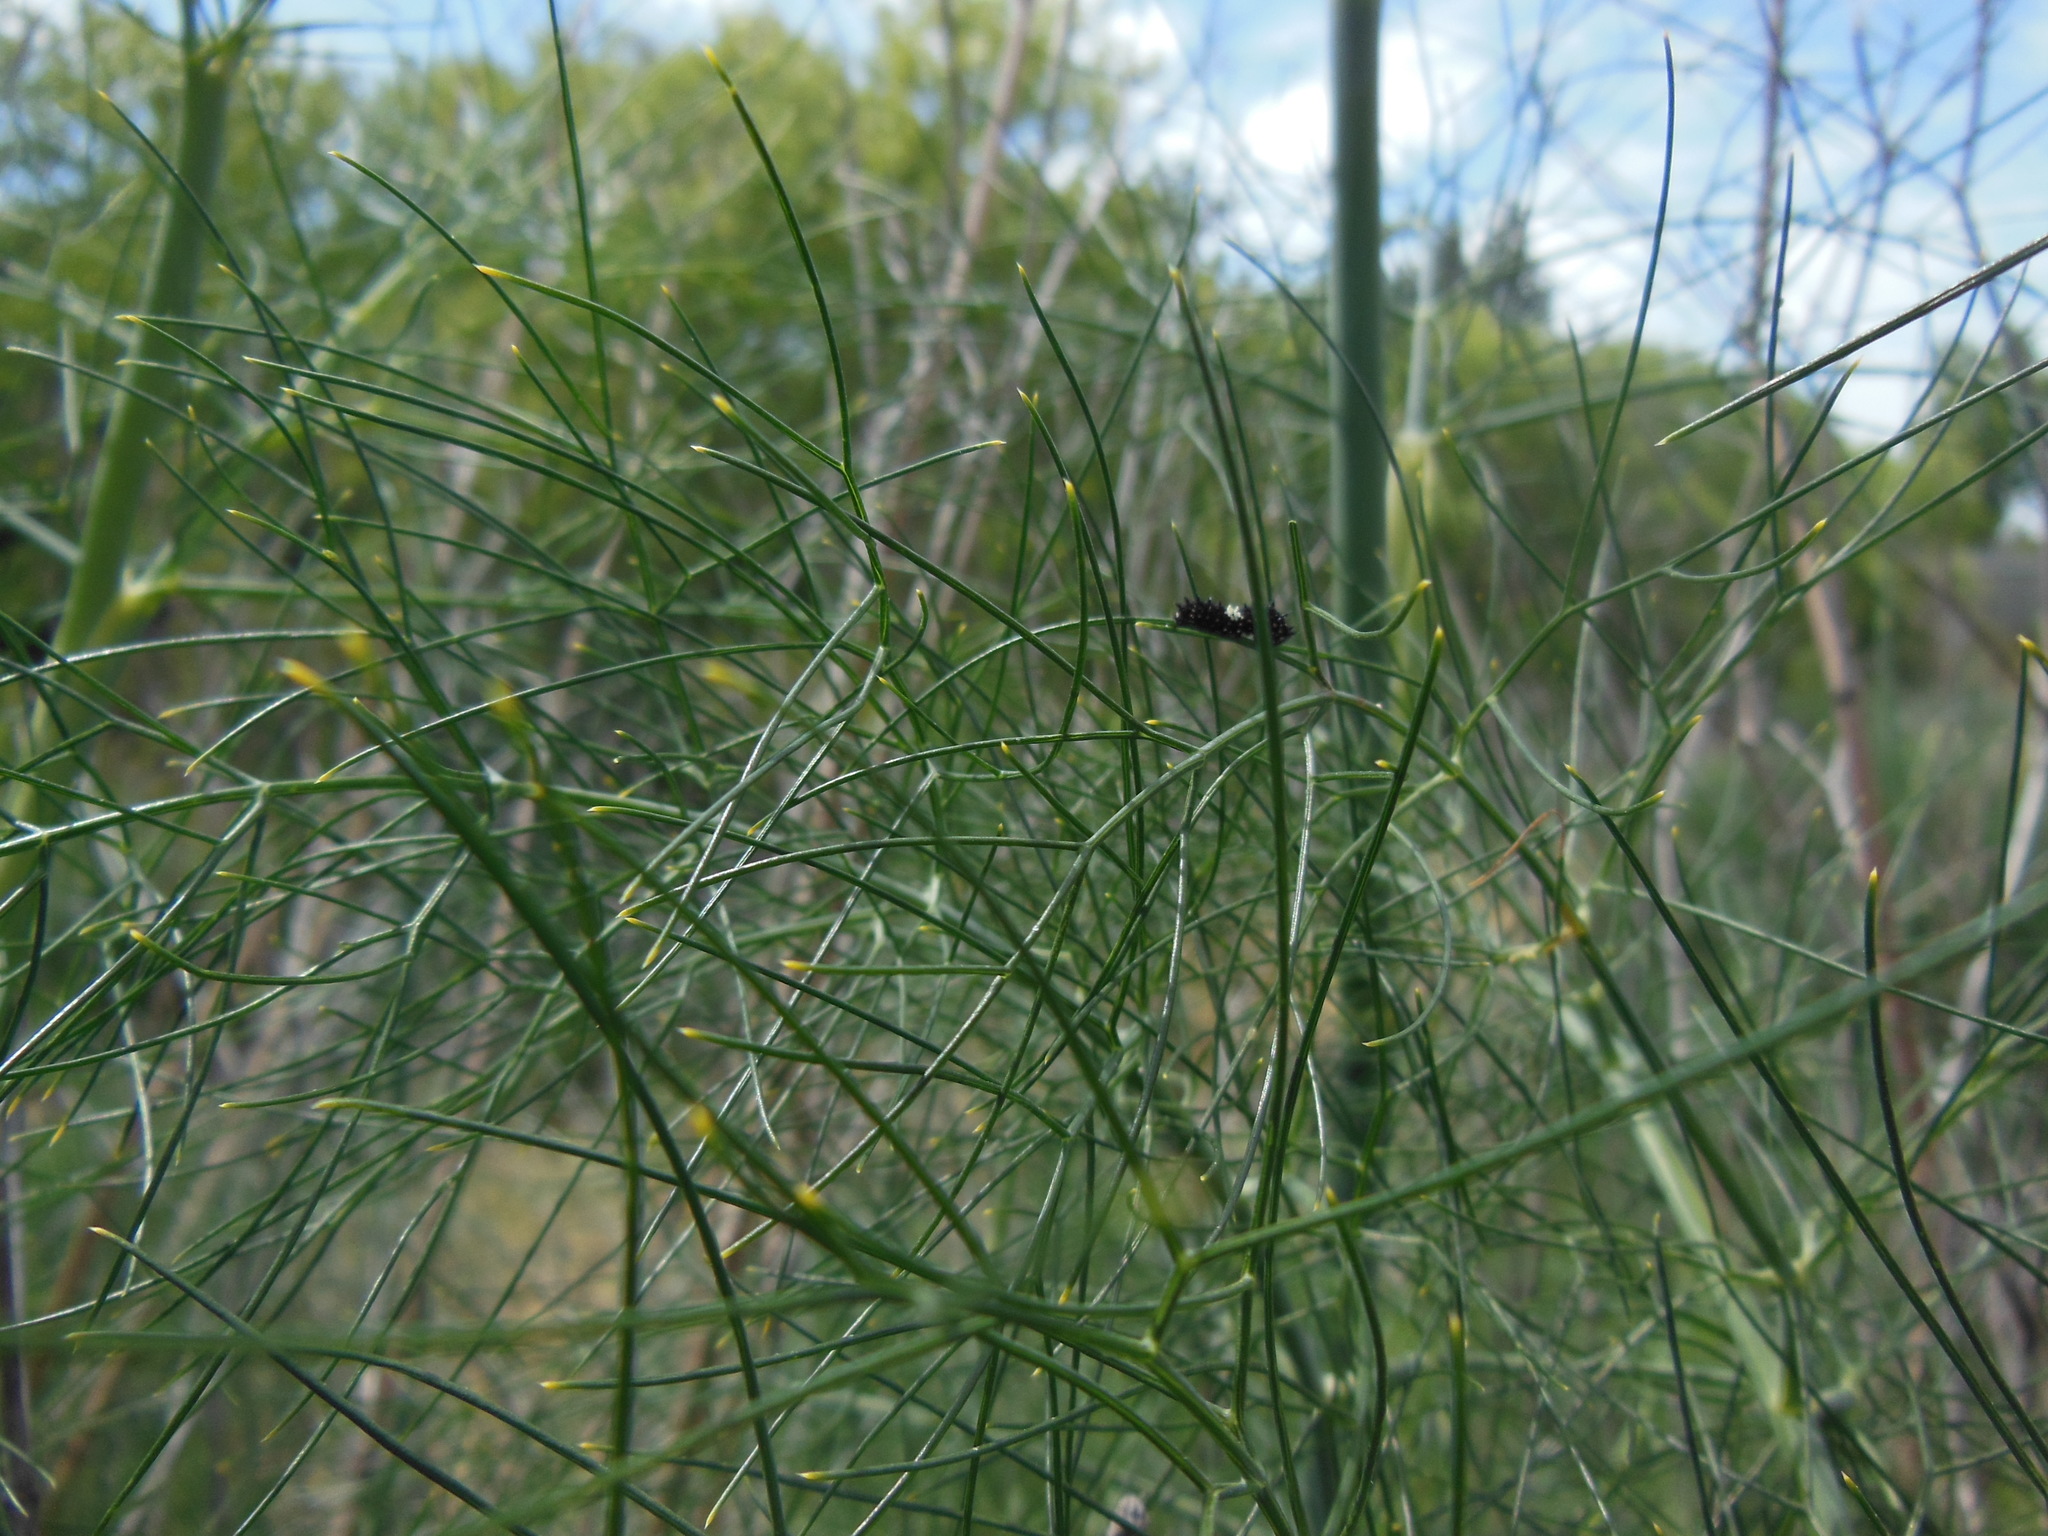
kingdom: Animalia
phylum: Arthropoda
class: Insecta
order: Lepidoptera
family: Papilionidae
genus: Papilio
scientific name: Papilio zelicaon
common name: Anise swallowtail
